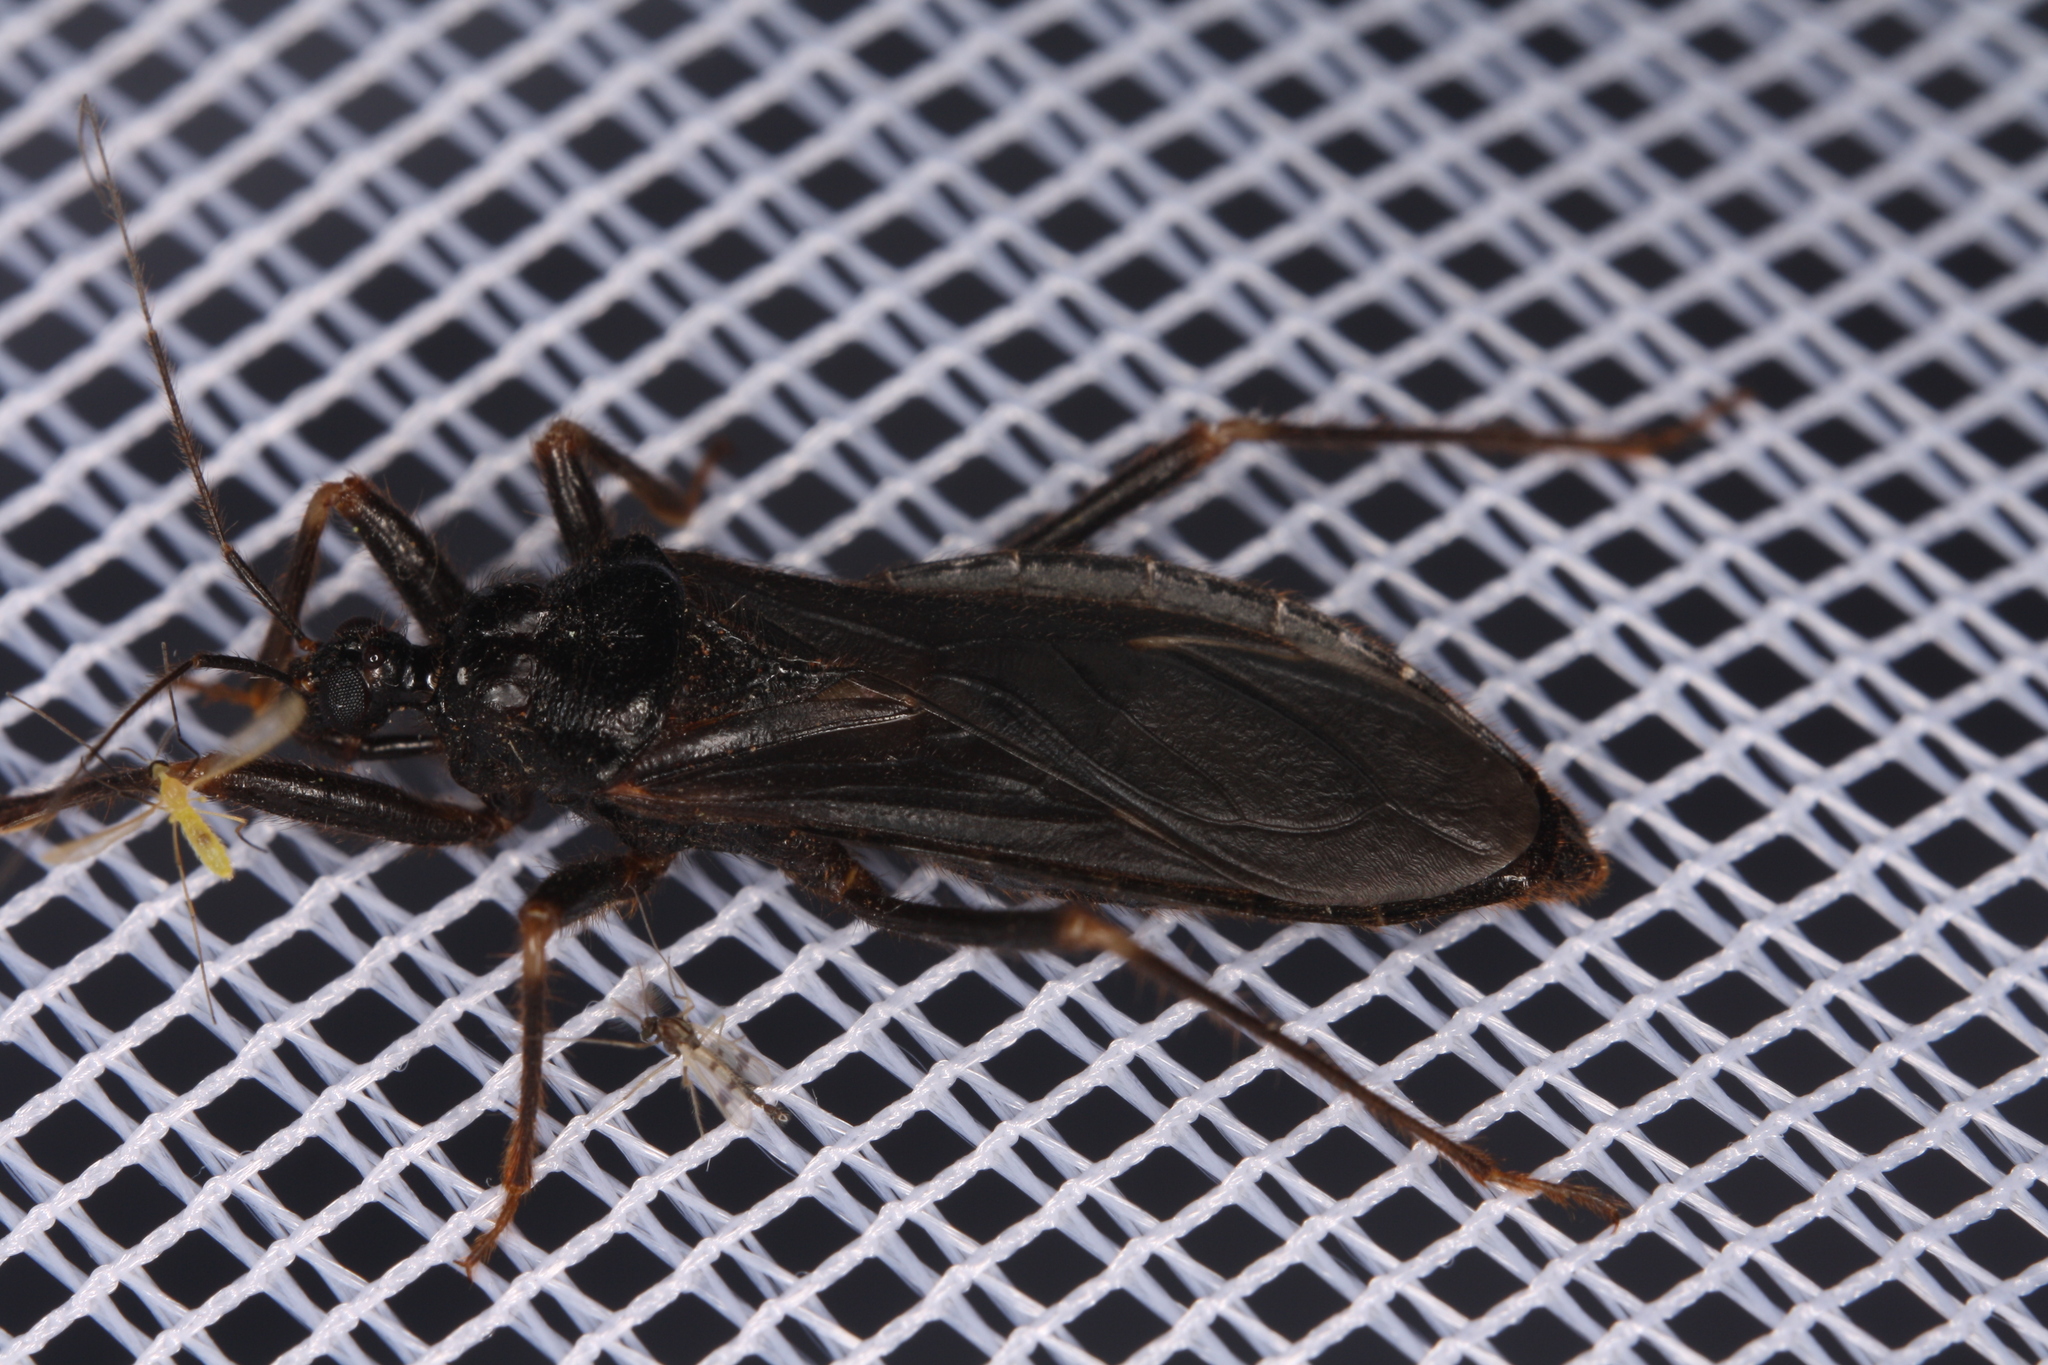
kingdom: Animalia
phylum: Arthropoda
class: Insecta
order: Hemiptera
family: Reduviidae
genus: Reduvius
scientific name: Reduvius personatus
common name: Masked hunter
